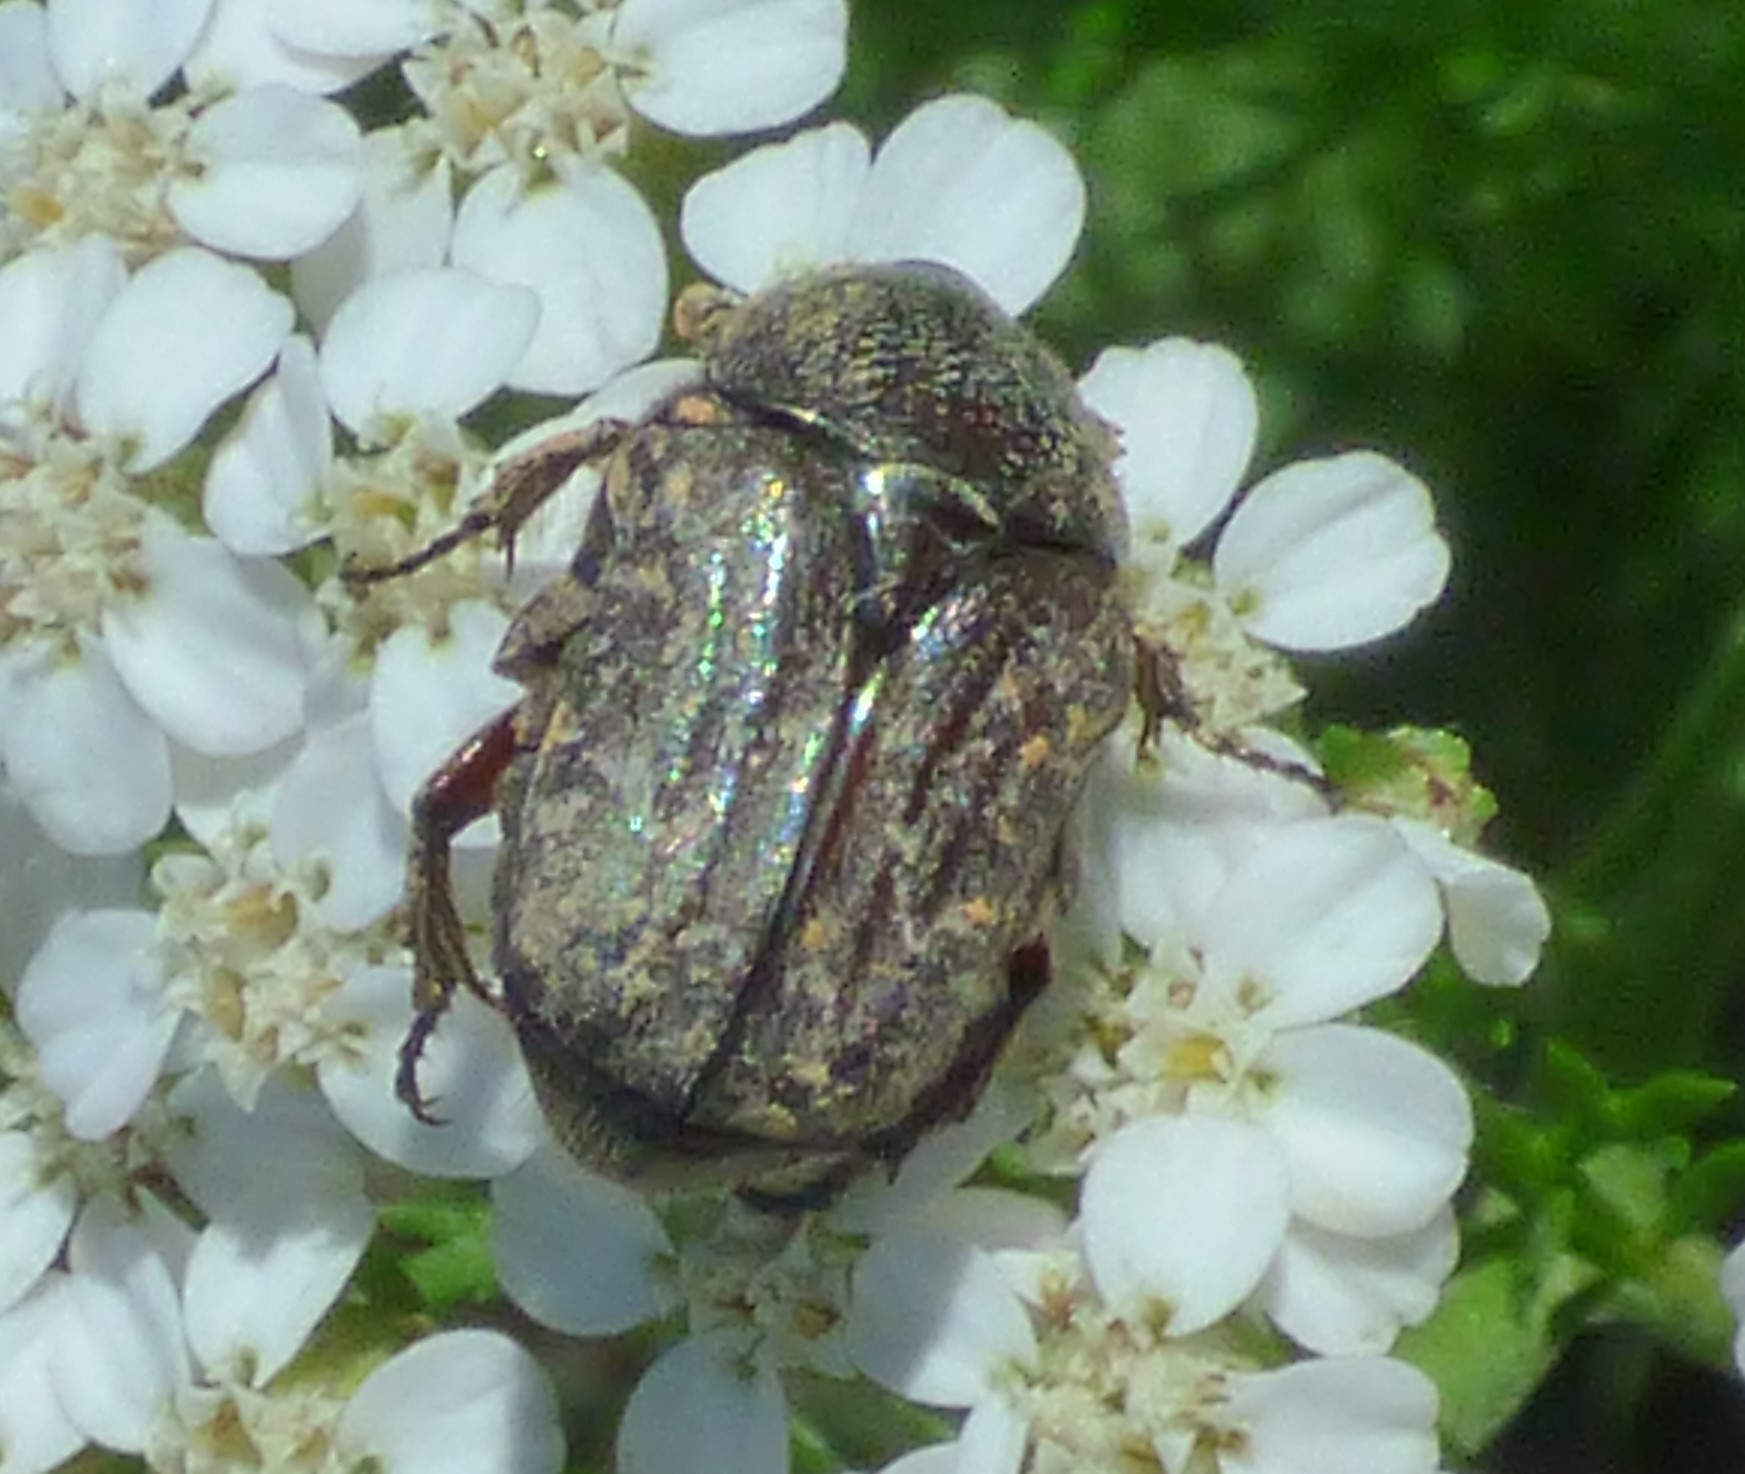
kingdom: Animalia
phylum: Arthropoda
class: Insecta
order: Coleoptera
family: Scarabaeidae
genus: Euphoria
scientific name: Euphoria sepulcralis
